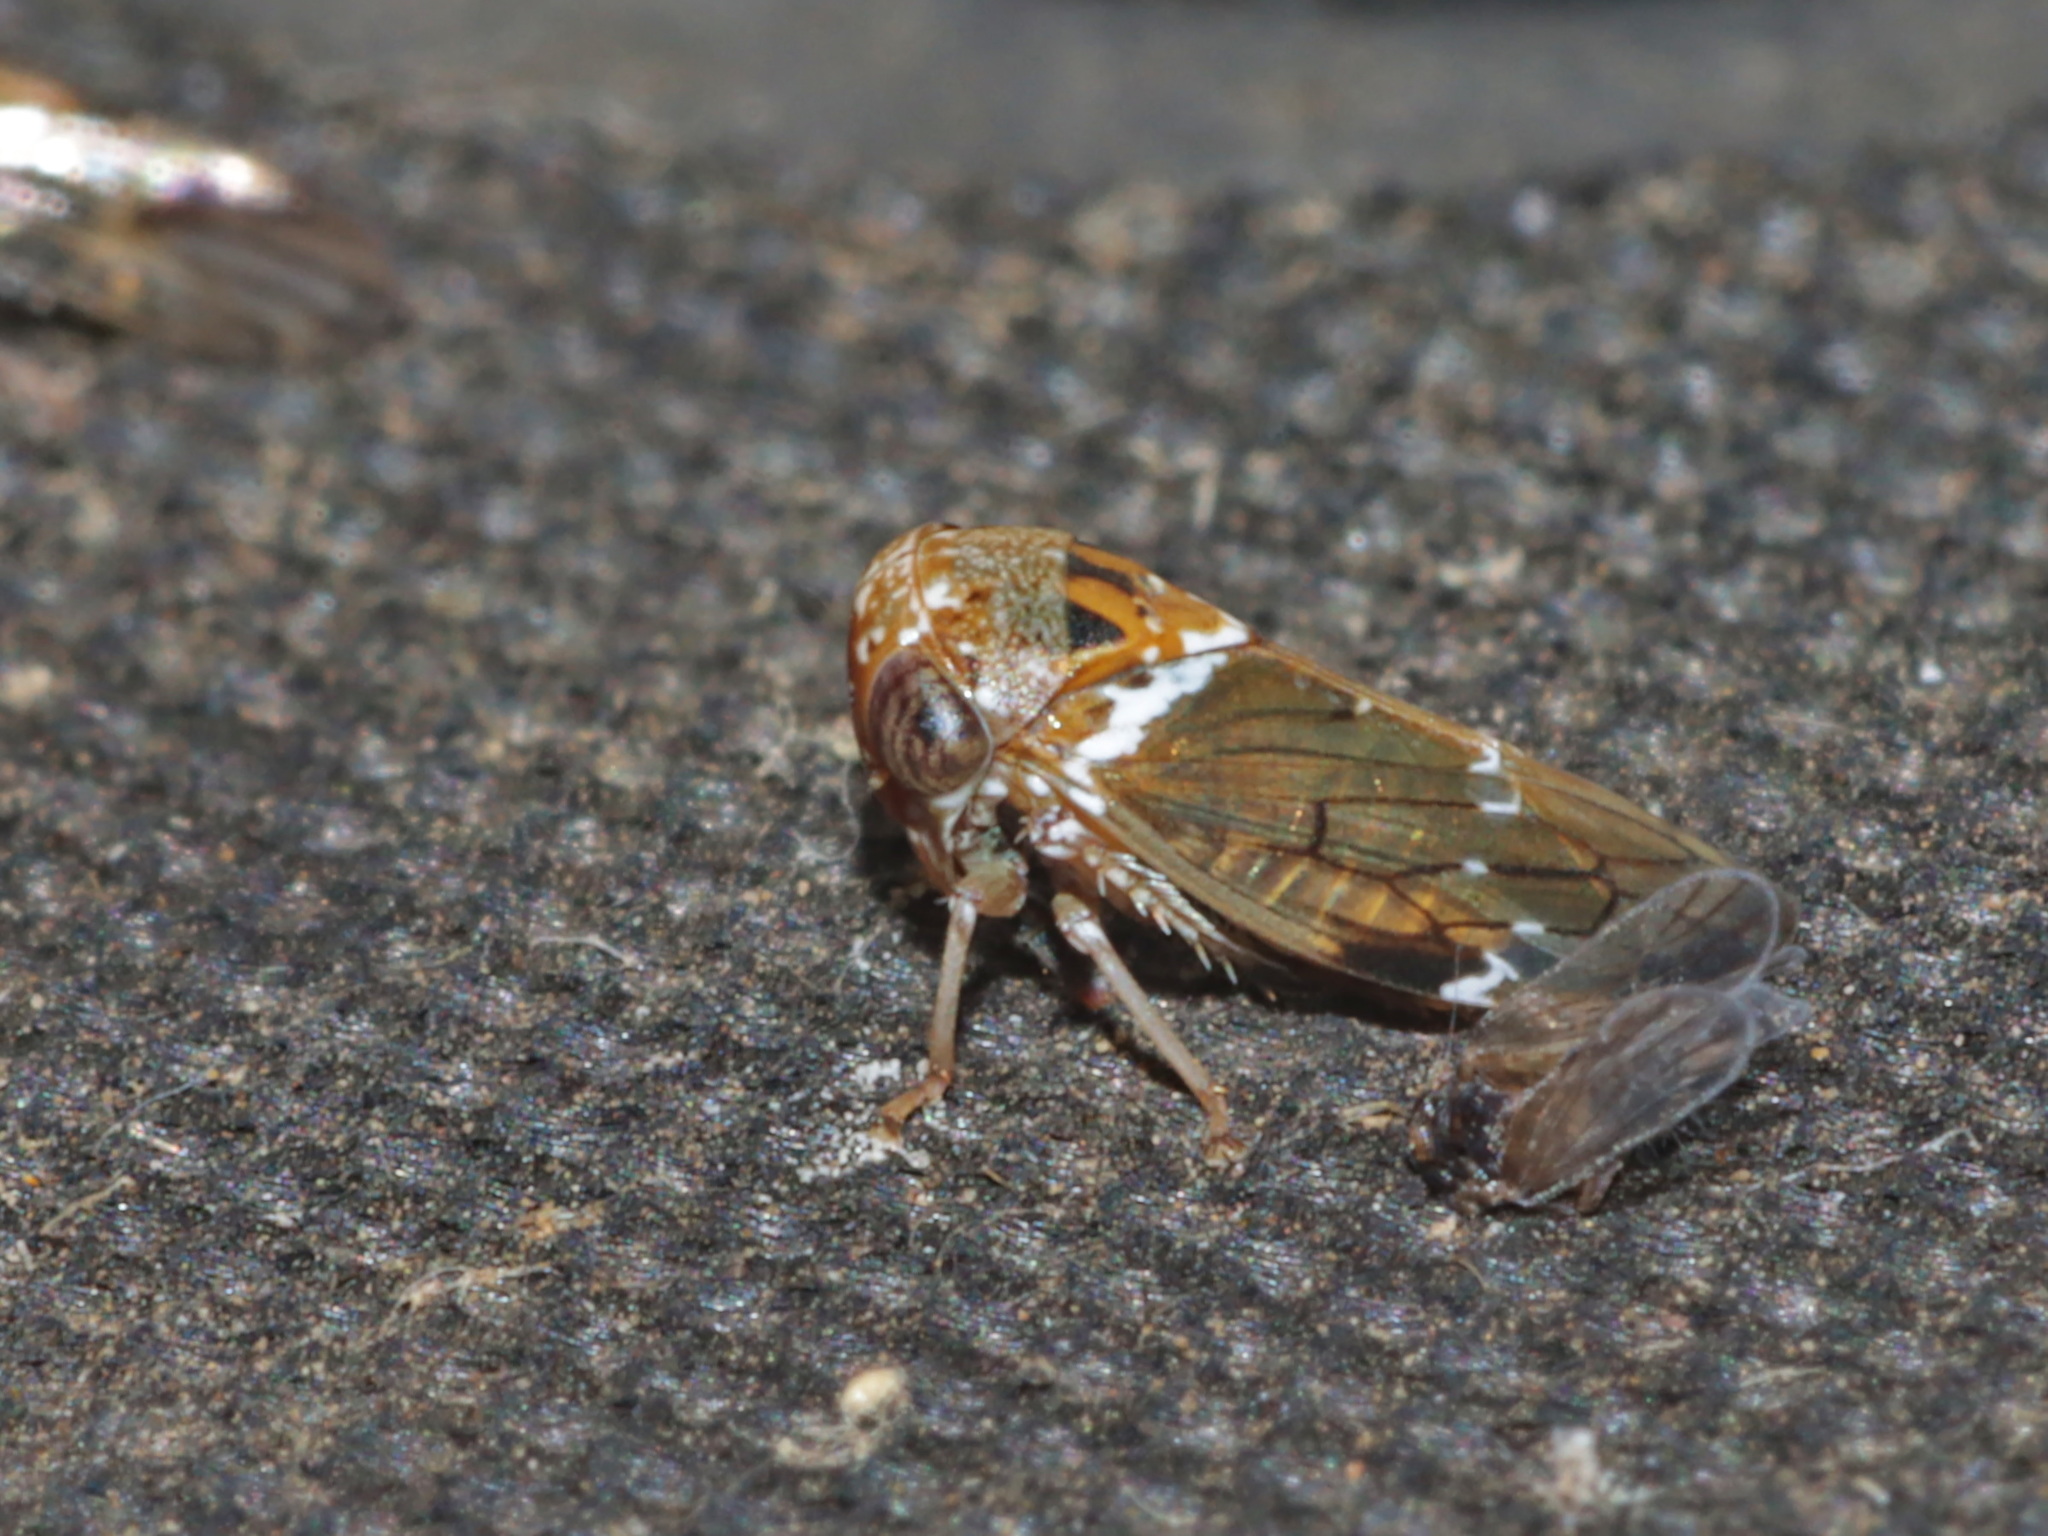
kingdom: Animalia
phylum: Arthropoda
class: Insecta
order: Hemiptera
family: Cicadellidae
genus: Idioscopus
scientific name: Idioscopus nitidulus
